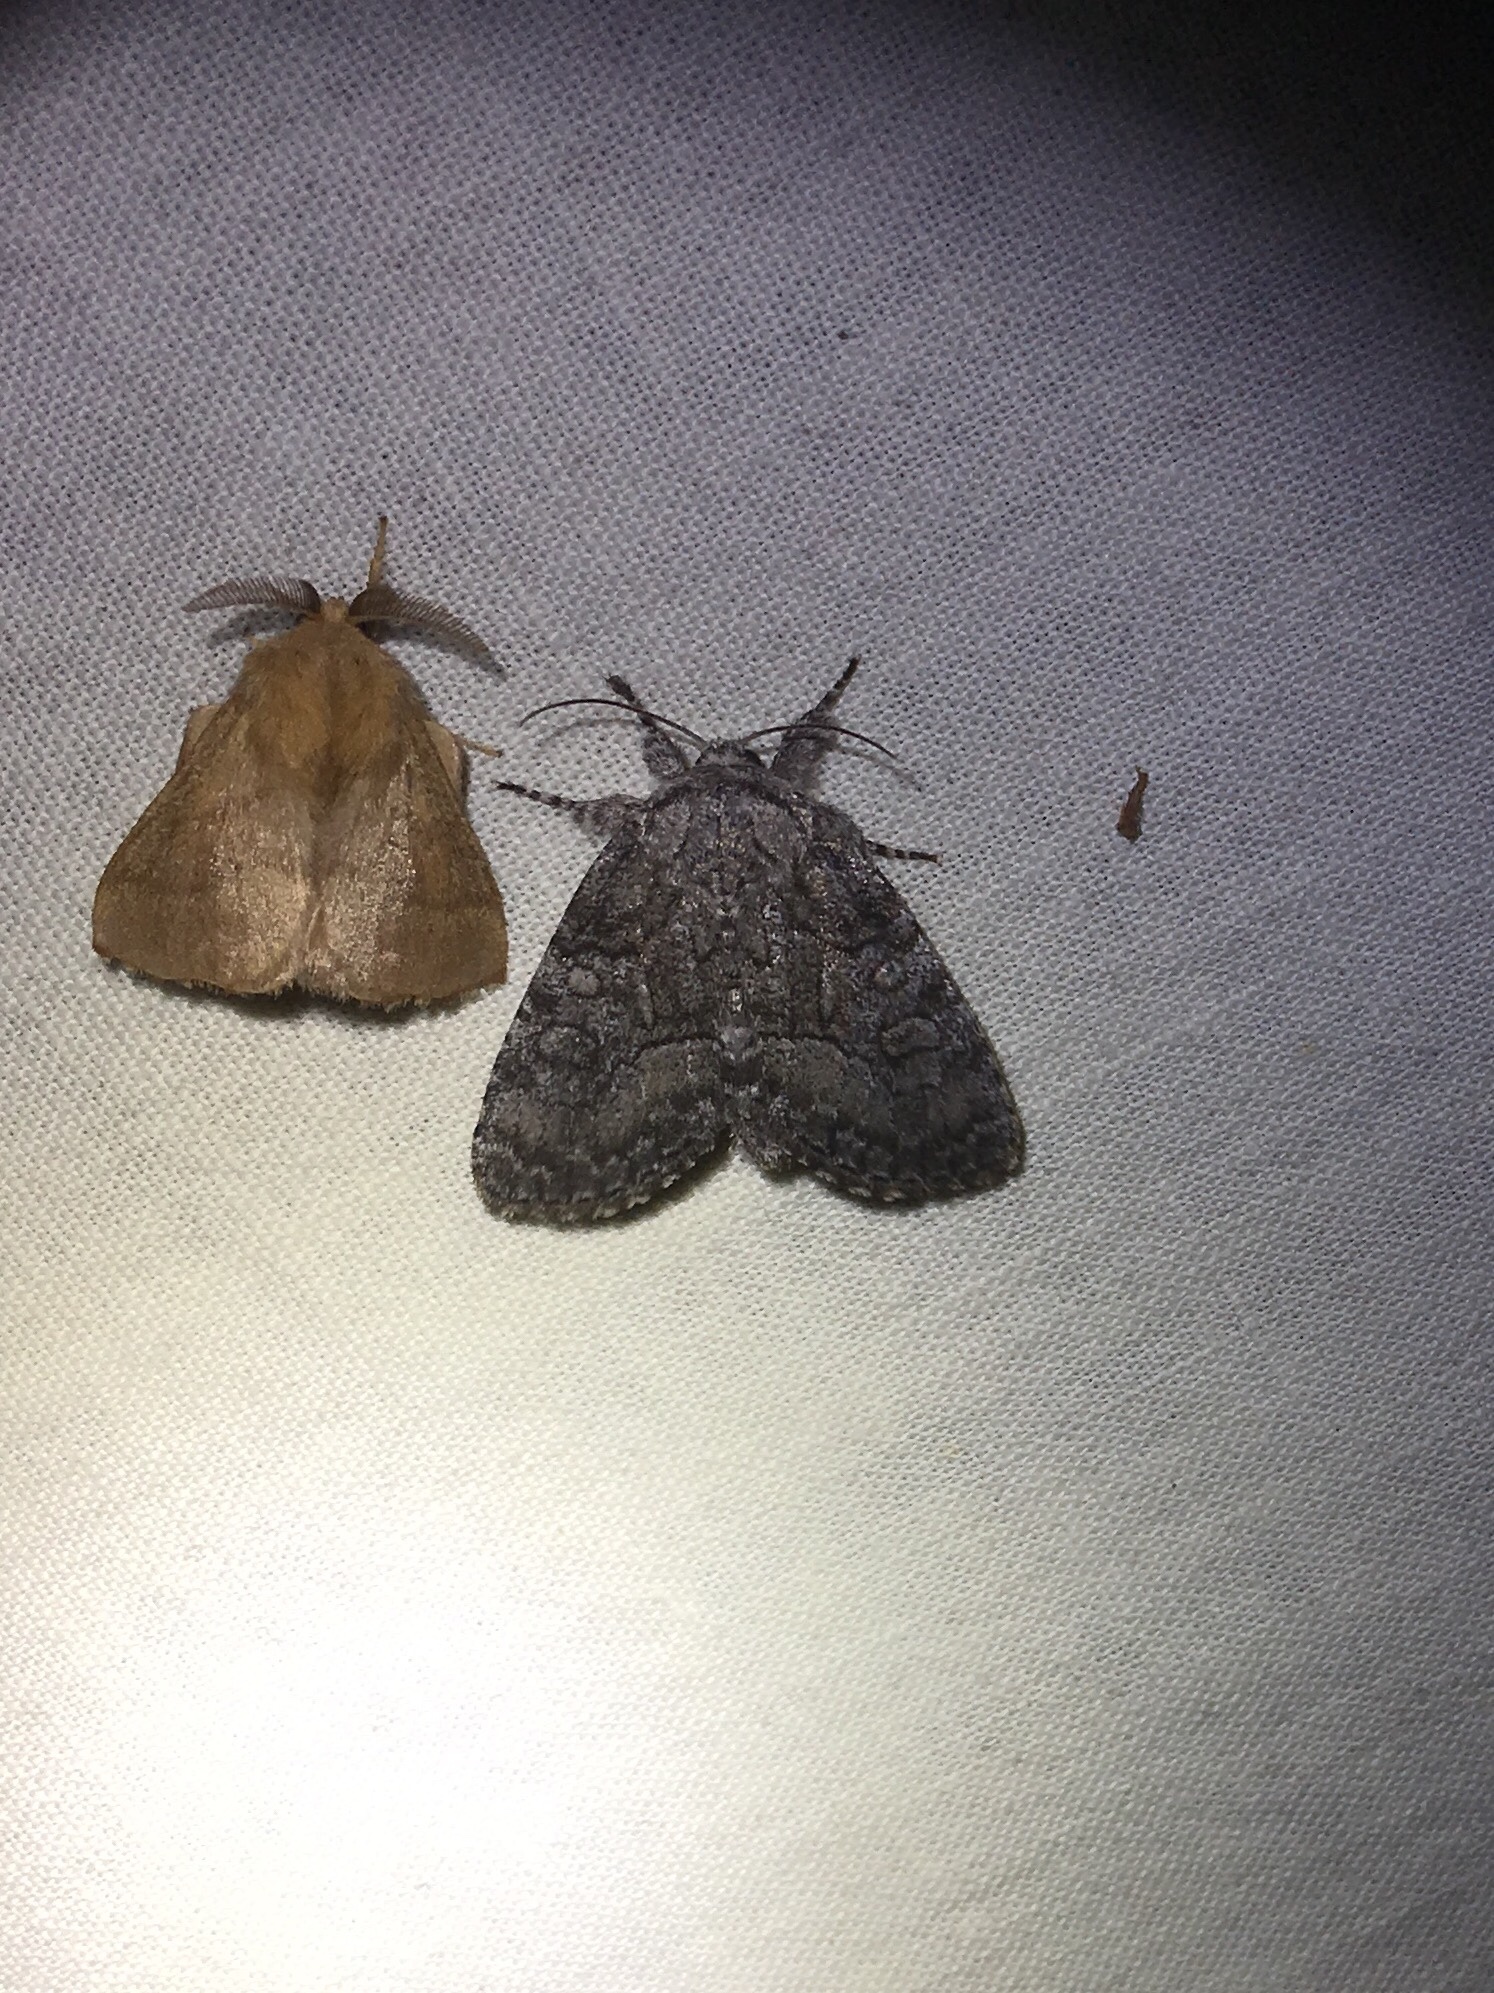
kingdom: Animalia
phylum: Arthropoda
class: Insecta
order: Lepidoptera
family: Noctuidae
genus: Raphia
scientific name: Raphia frater
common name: Brother
